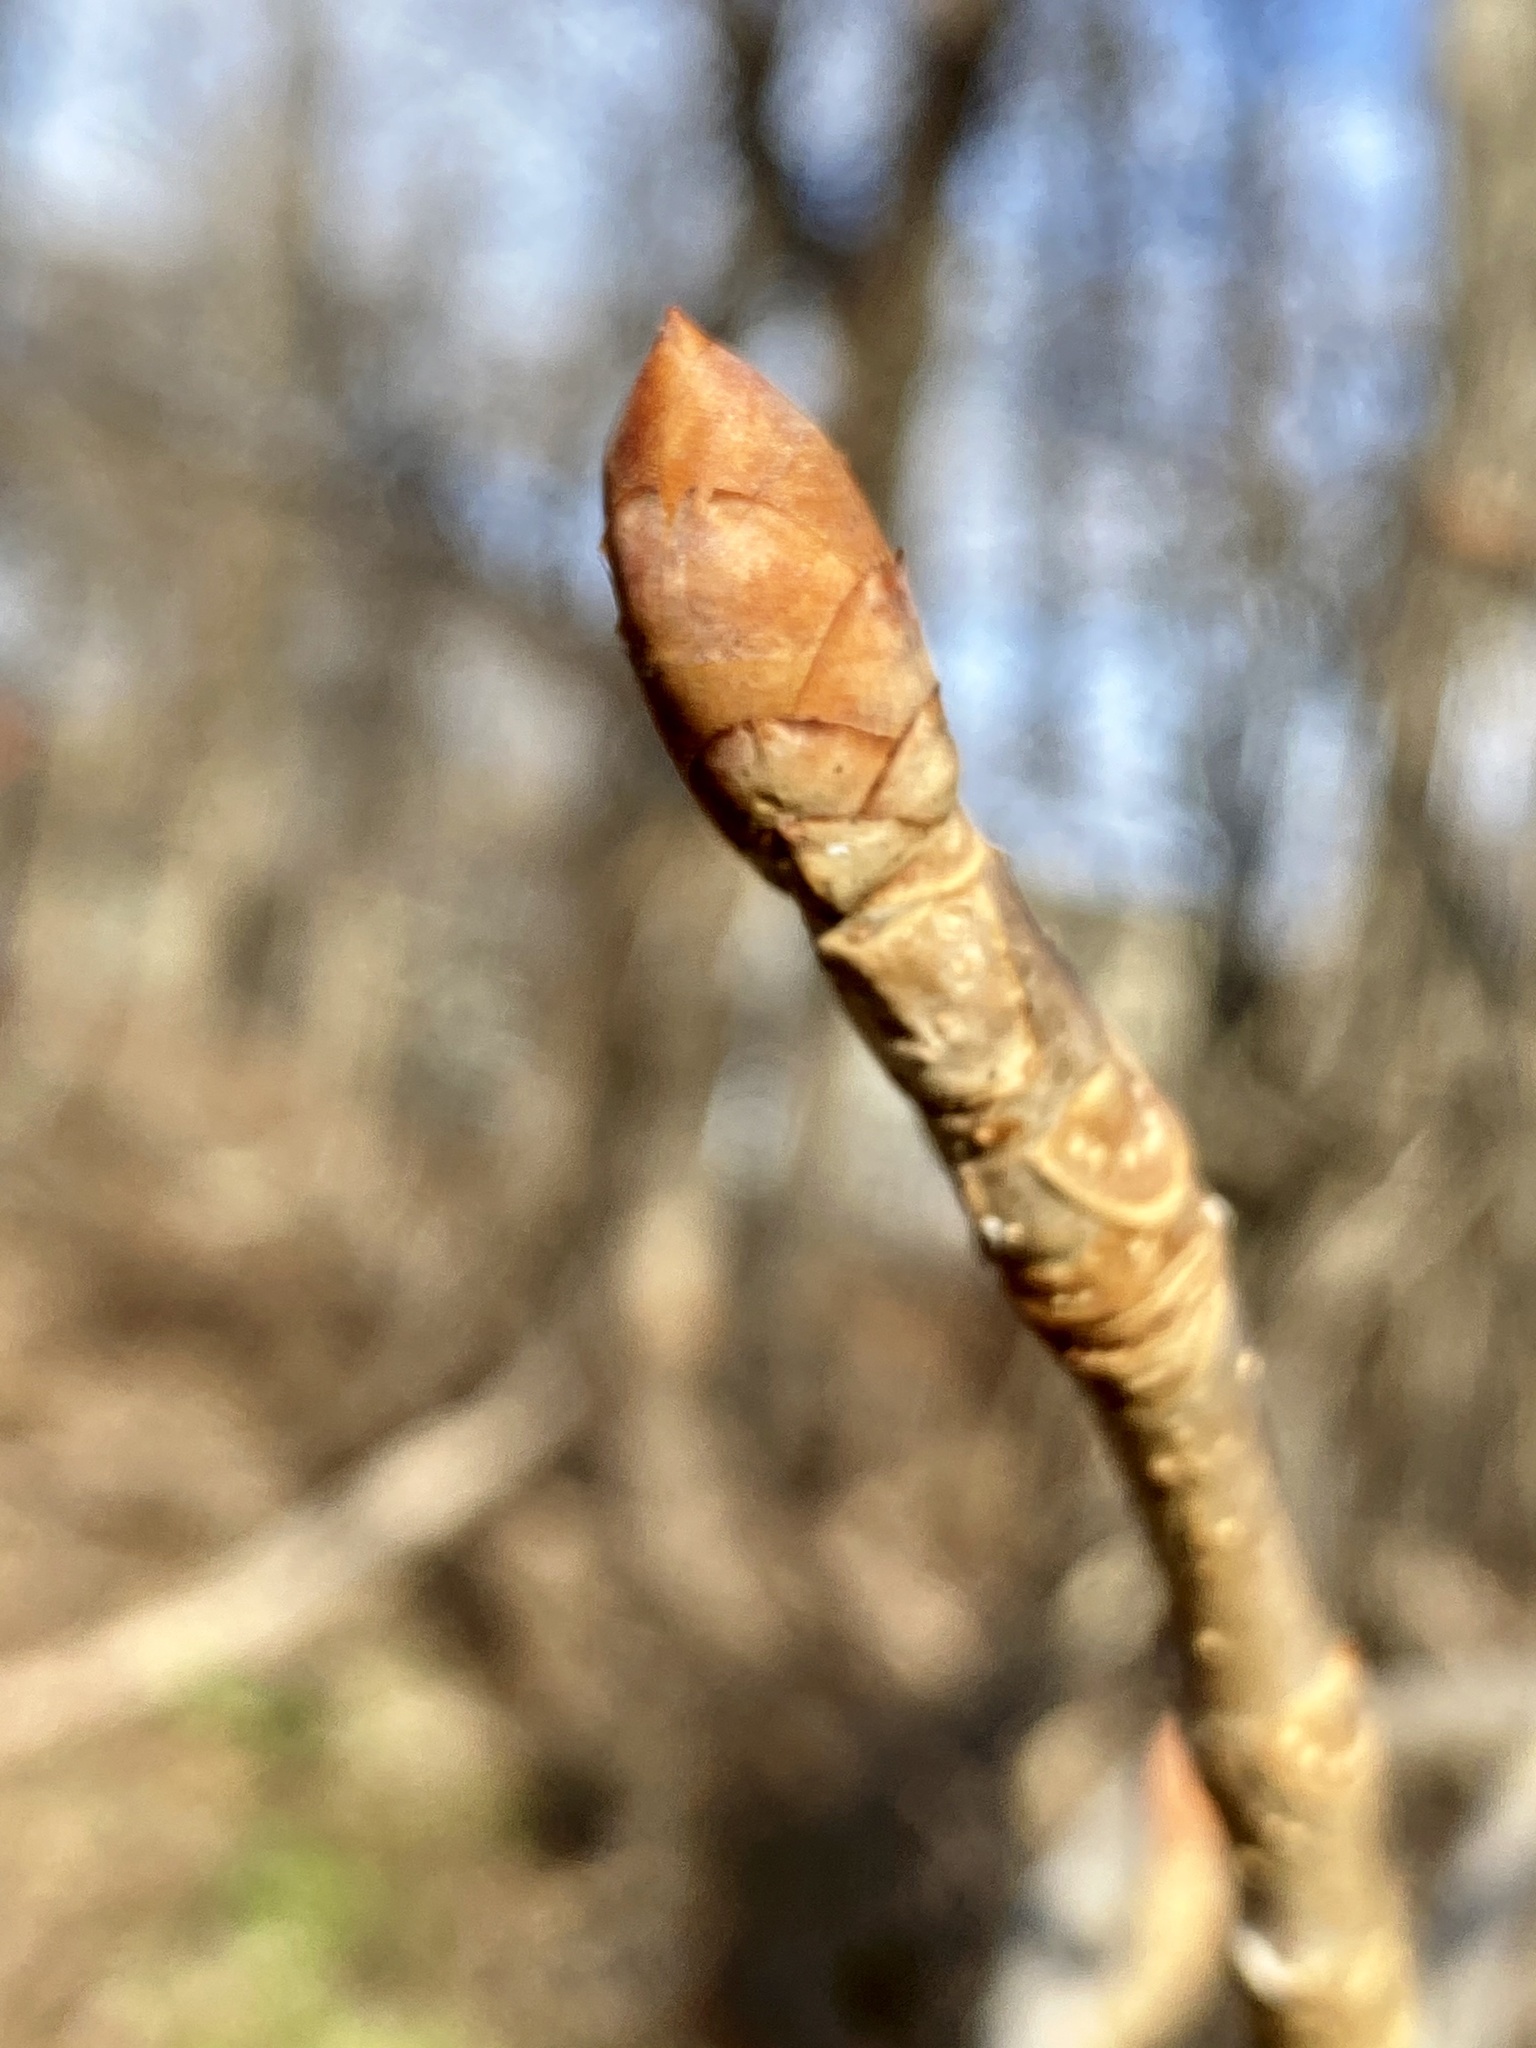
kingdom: Plantae
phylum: Tracheophyta
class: Magnoliopsida
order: Sapindales
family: Sapindaceae
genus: Aesculus
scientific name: Aesculus flava
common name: Yellow buckeye
